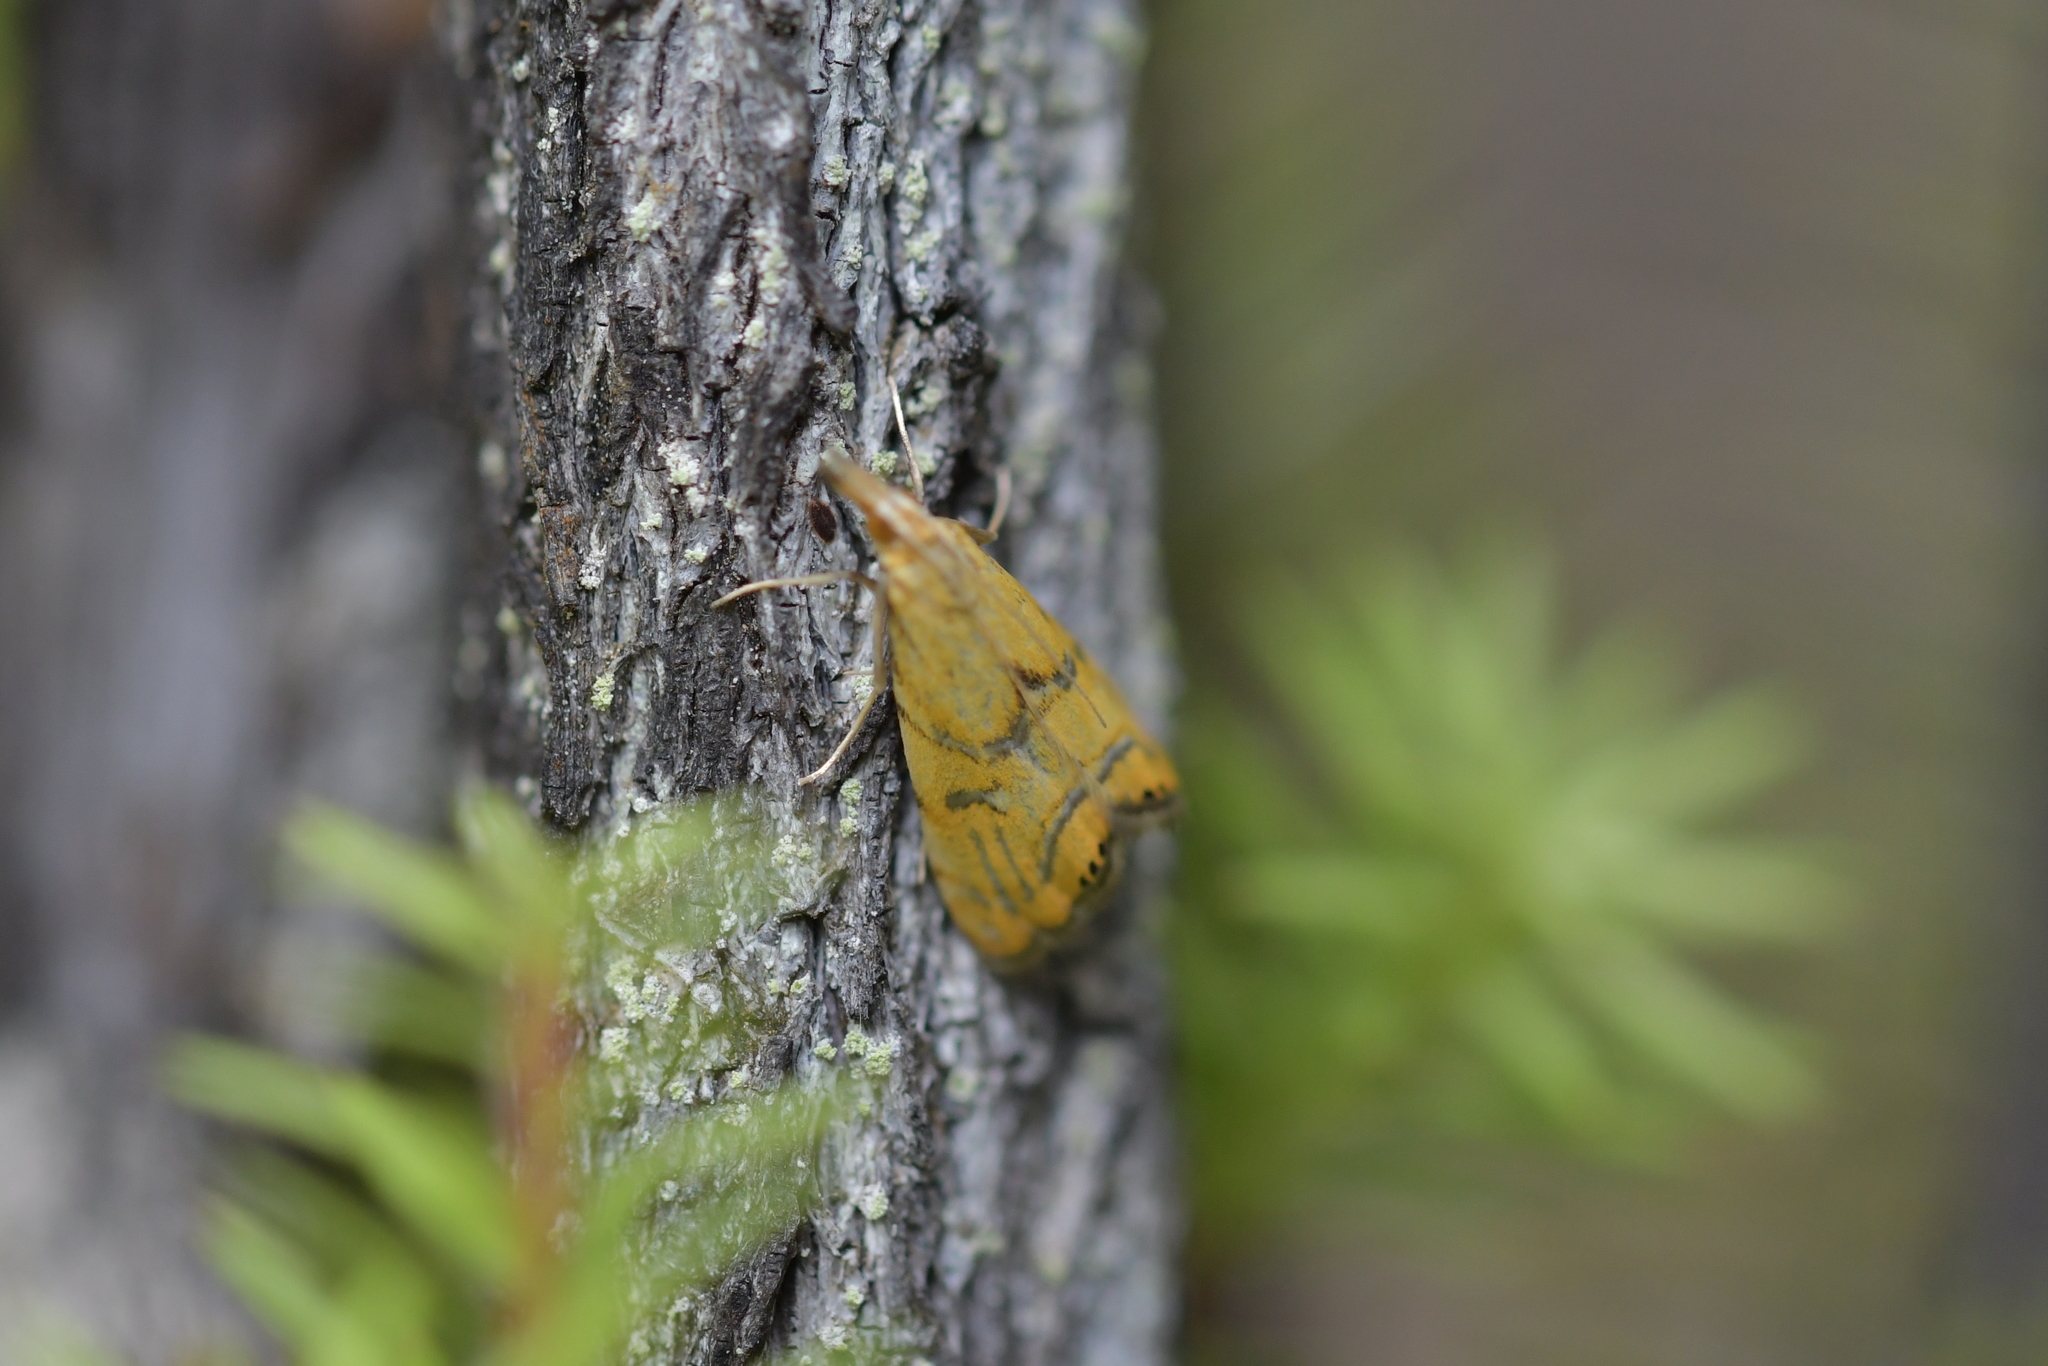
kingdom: Animalia
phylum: Arthropoda
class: Insecta
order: Lepidoptera
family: Crambidae
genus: Glaucocharis
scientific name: Glaucocharis auriscriptella
